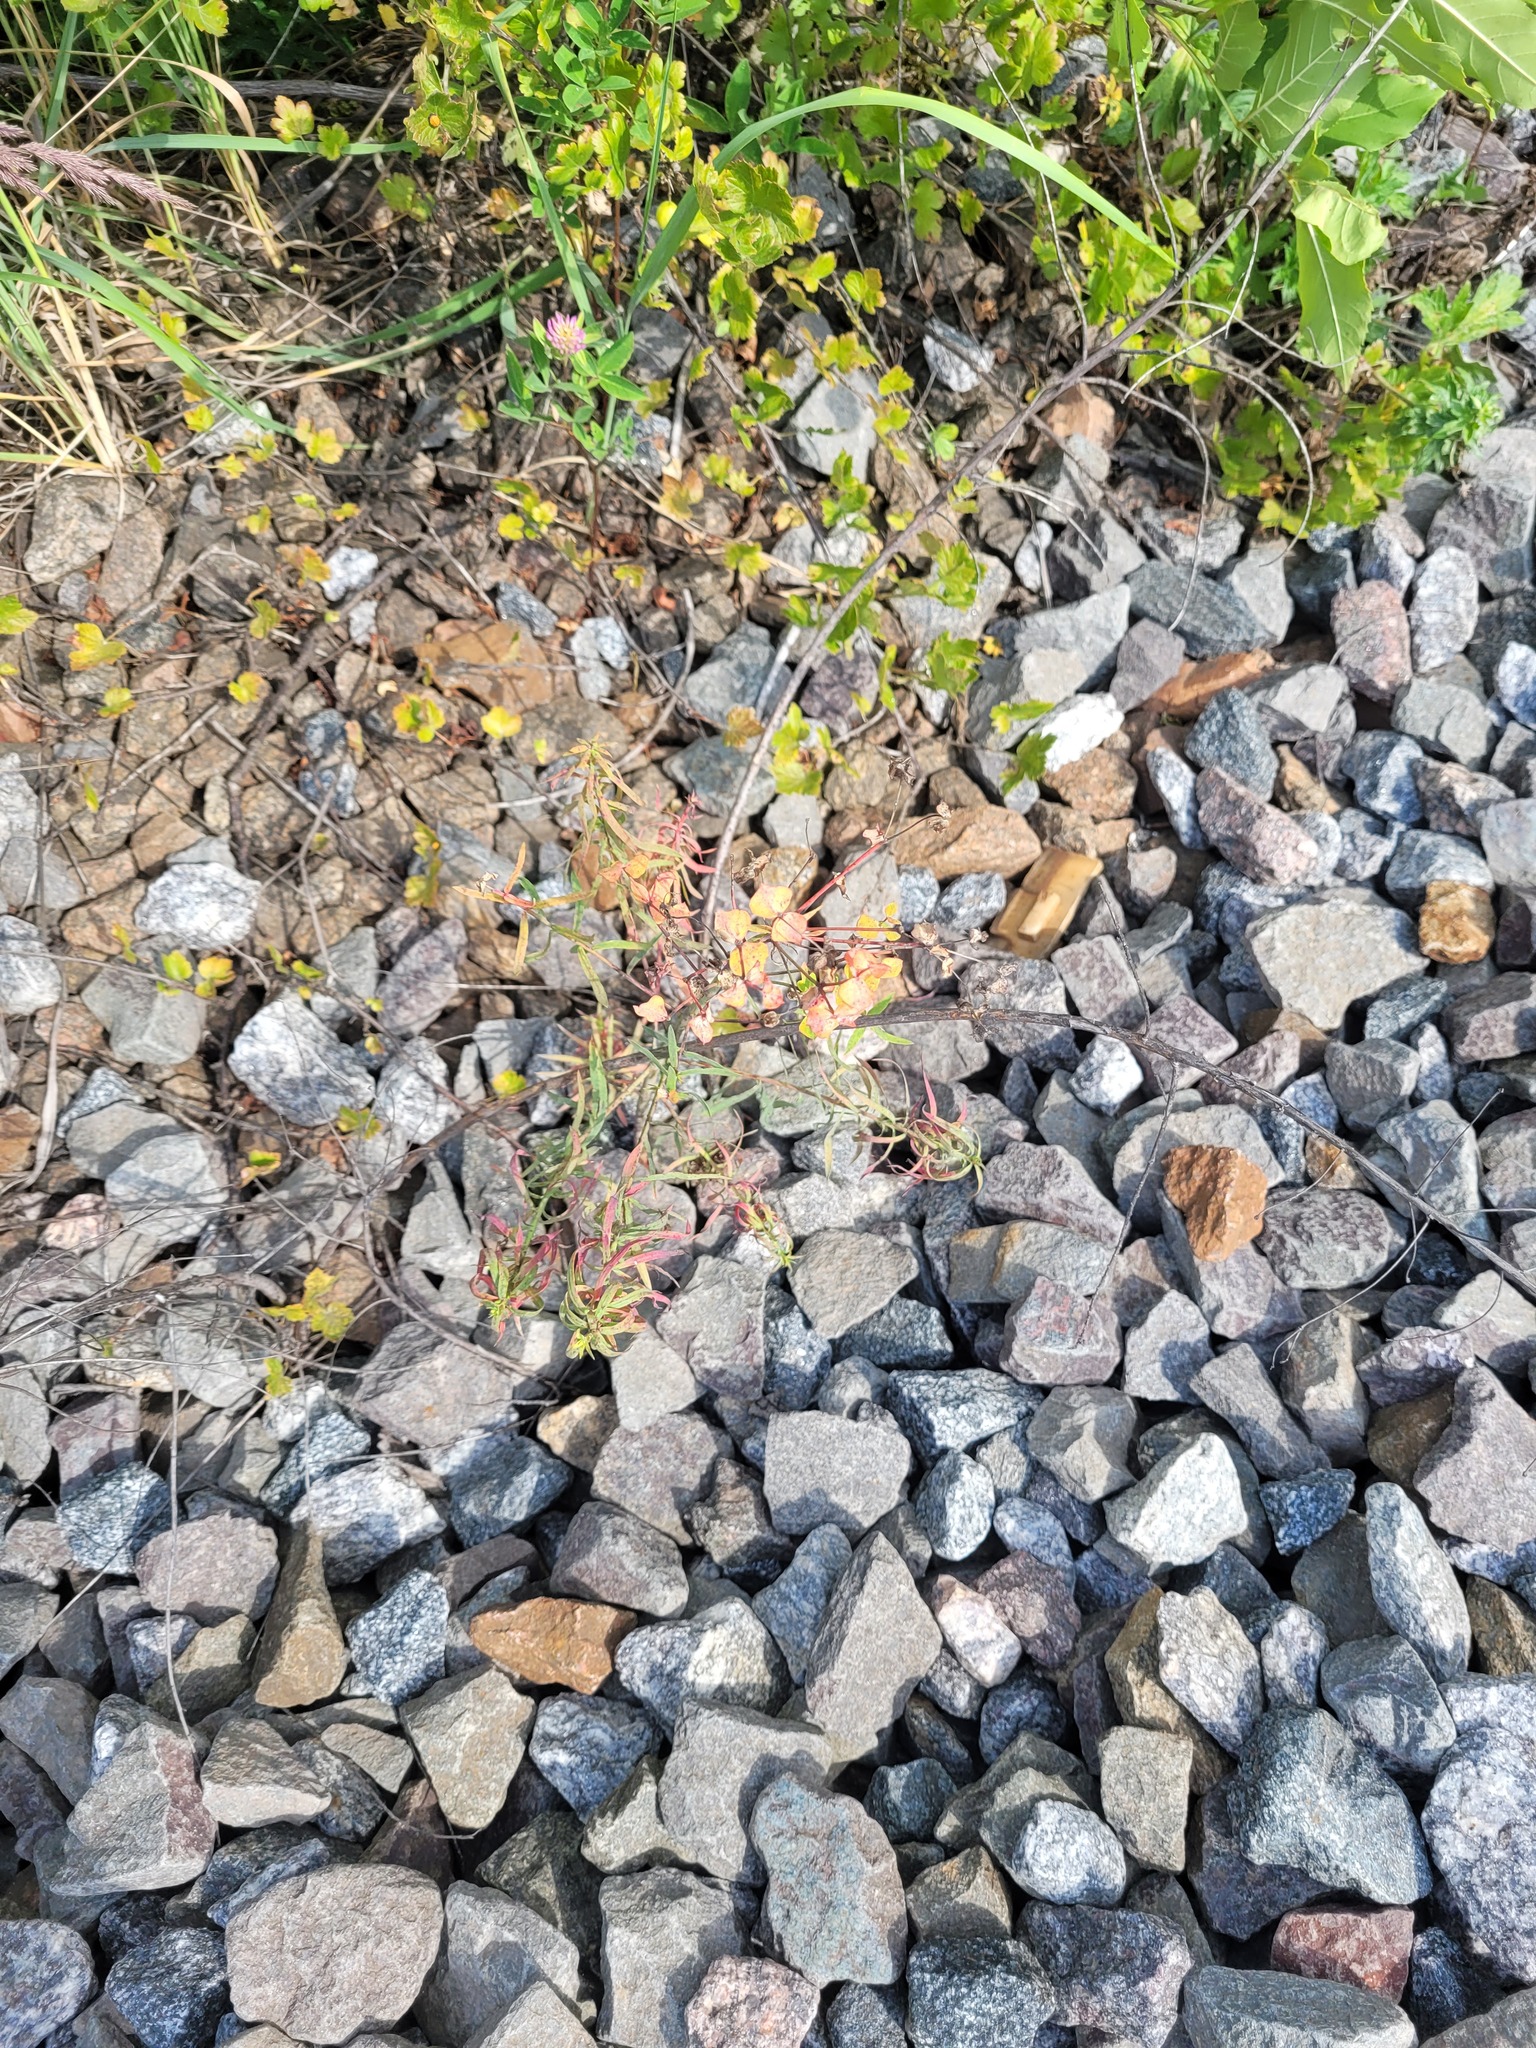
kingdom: Plantae
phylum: Tracheophyta
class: Magnoliopsida
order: Malpighiales
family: Euphorbiaceae
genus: Euphorbia
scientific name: Euphorbia virgata
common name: Leafy spurge
